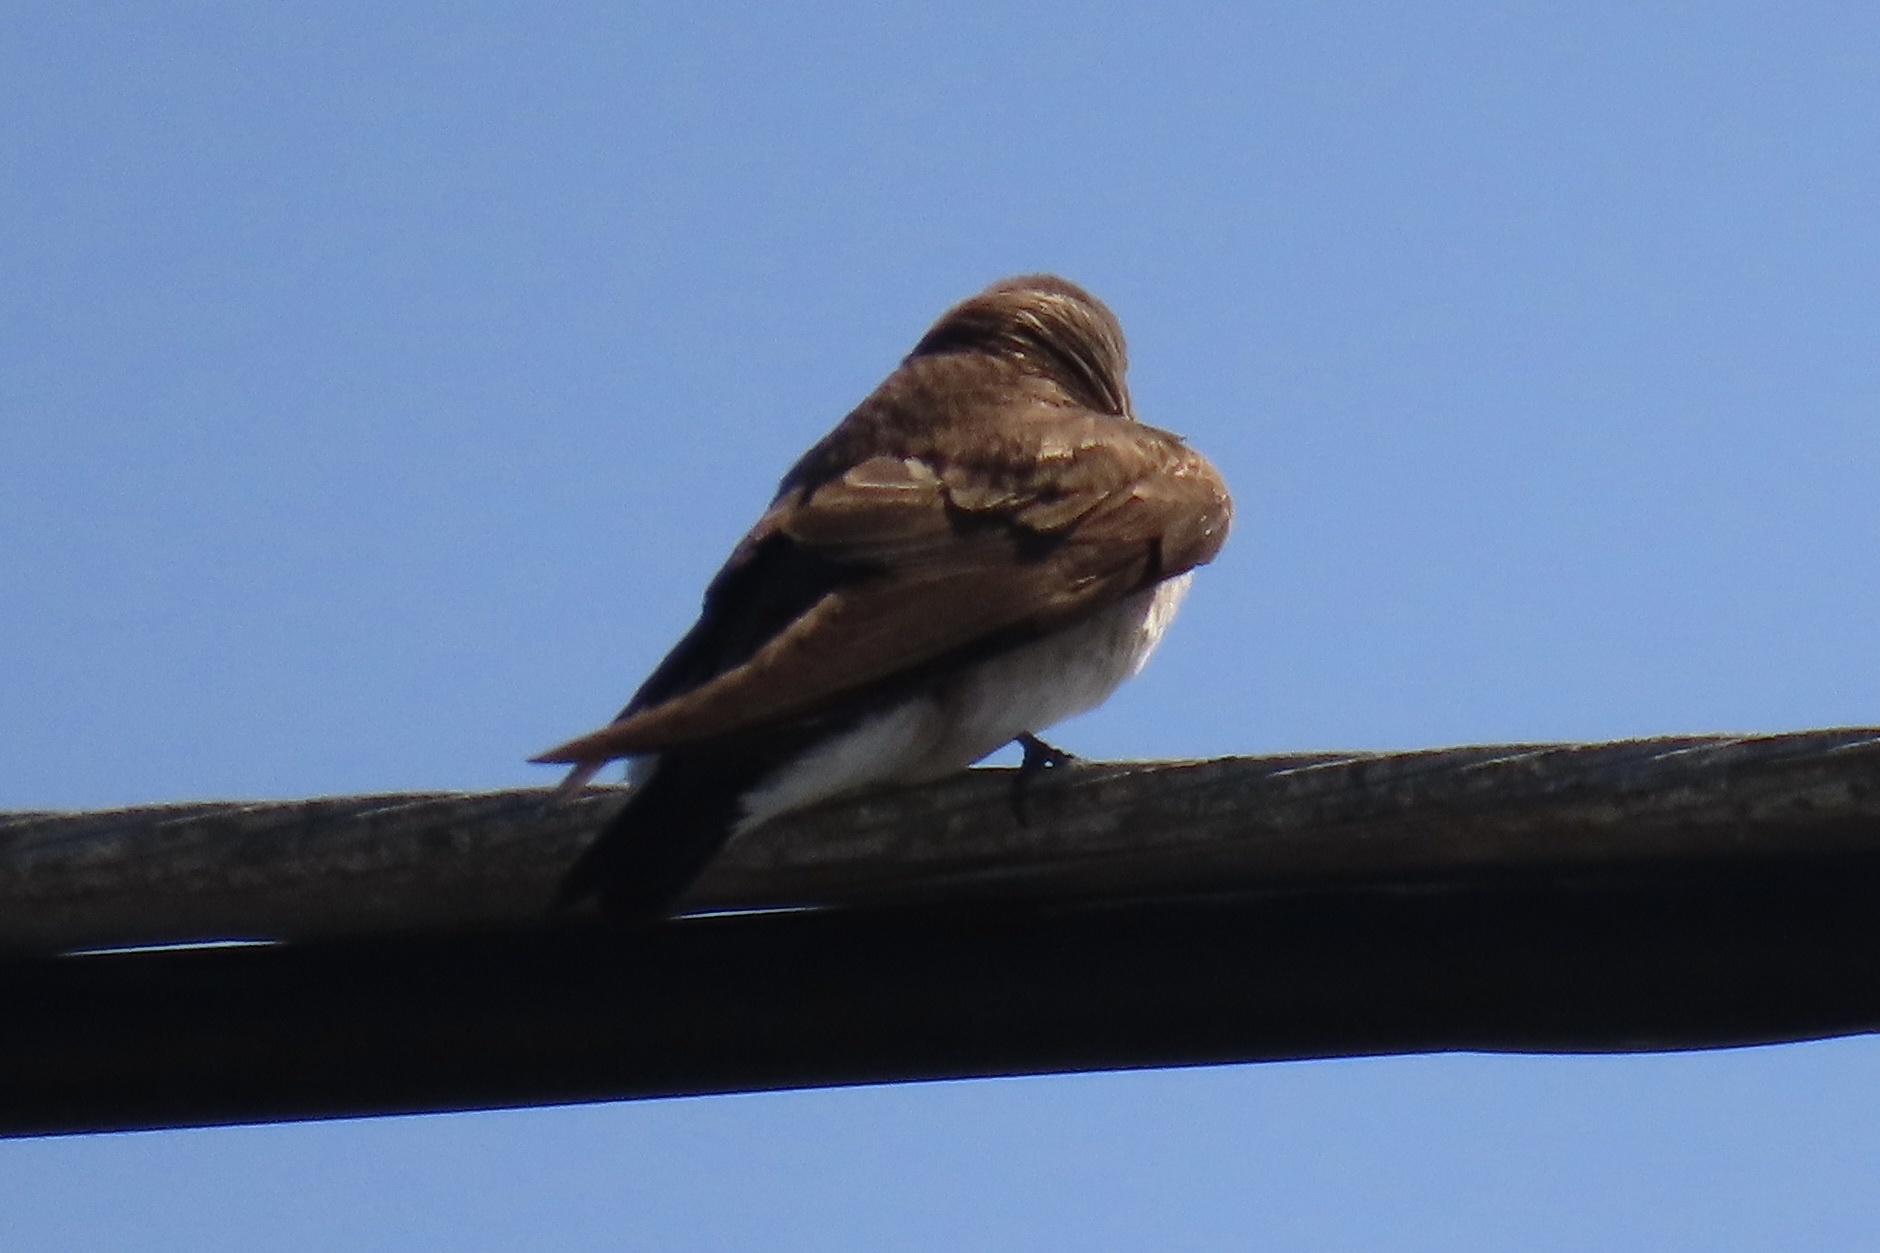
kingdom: Animalia
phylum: Chordata
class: Aves
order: Passeriformes
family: Hirundinidae
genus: Stelgidopteryx
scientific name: Stelgidopteryx serripennis
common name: Northern rough-winged swallow
